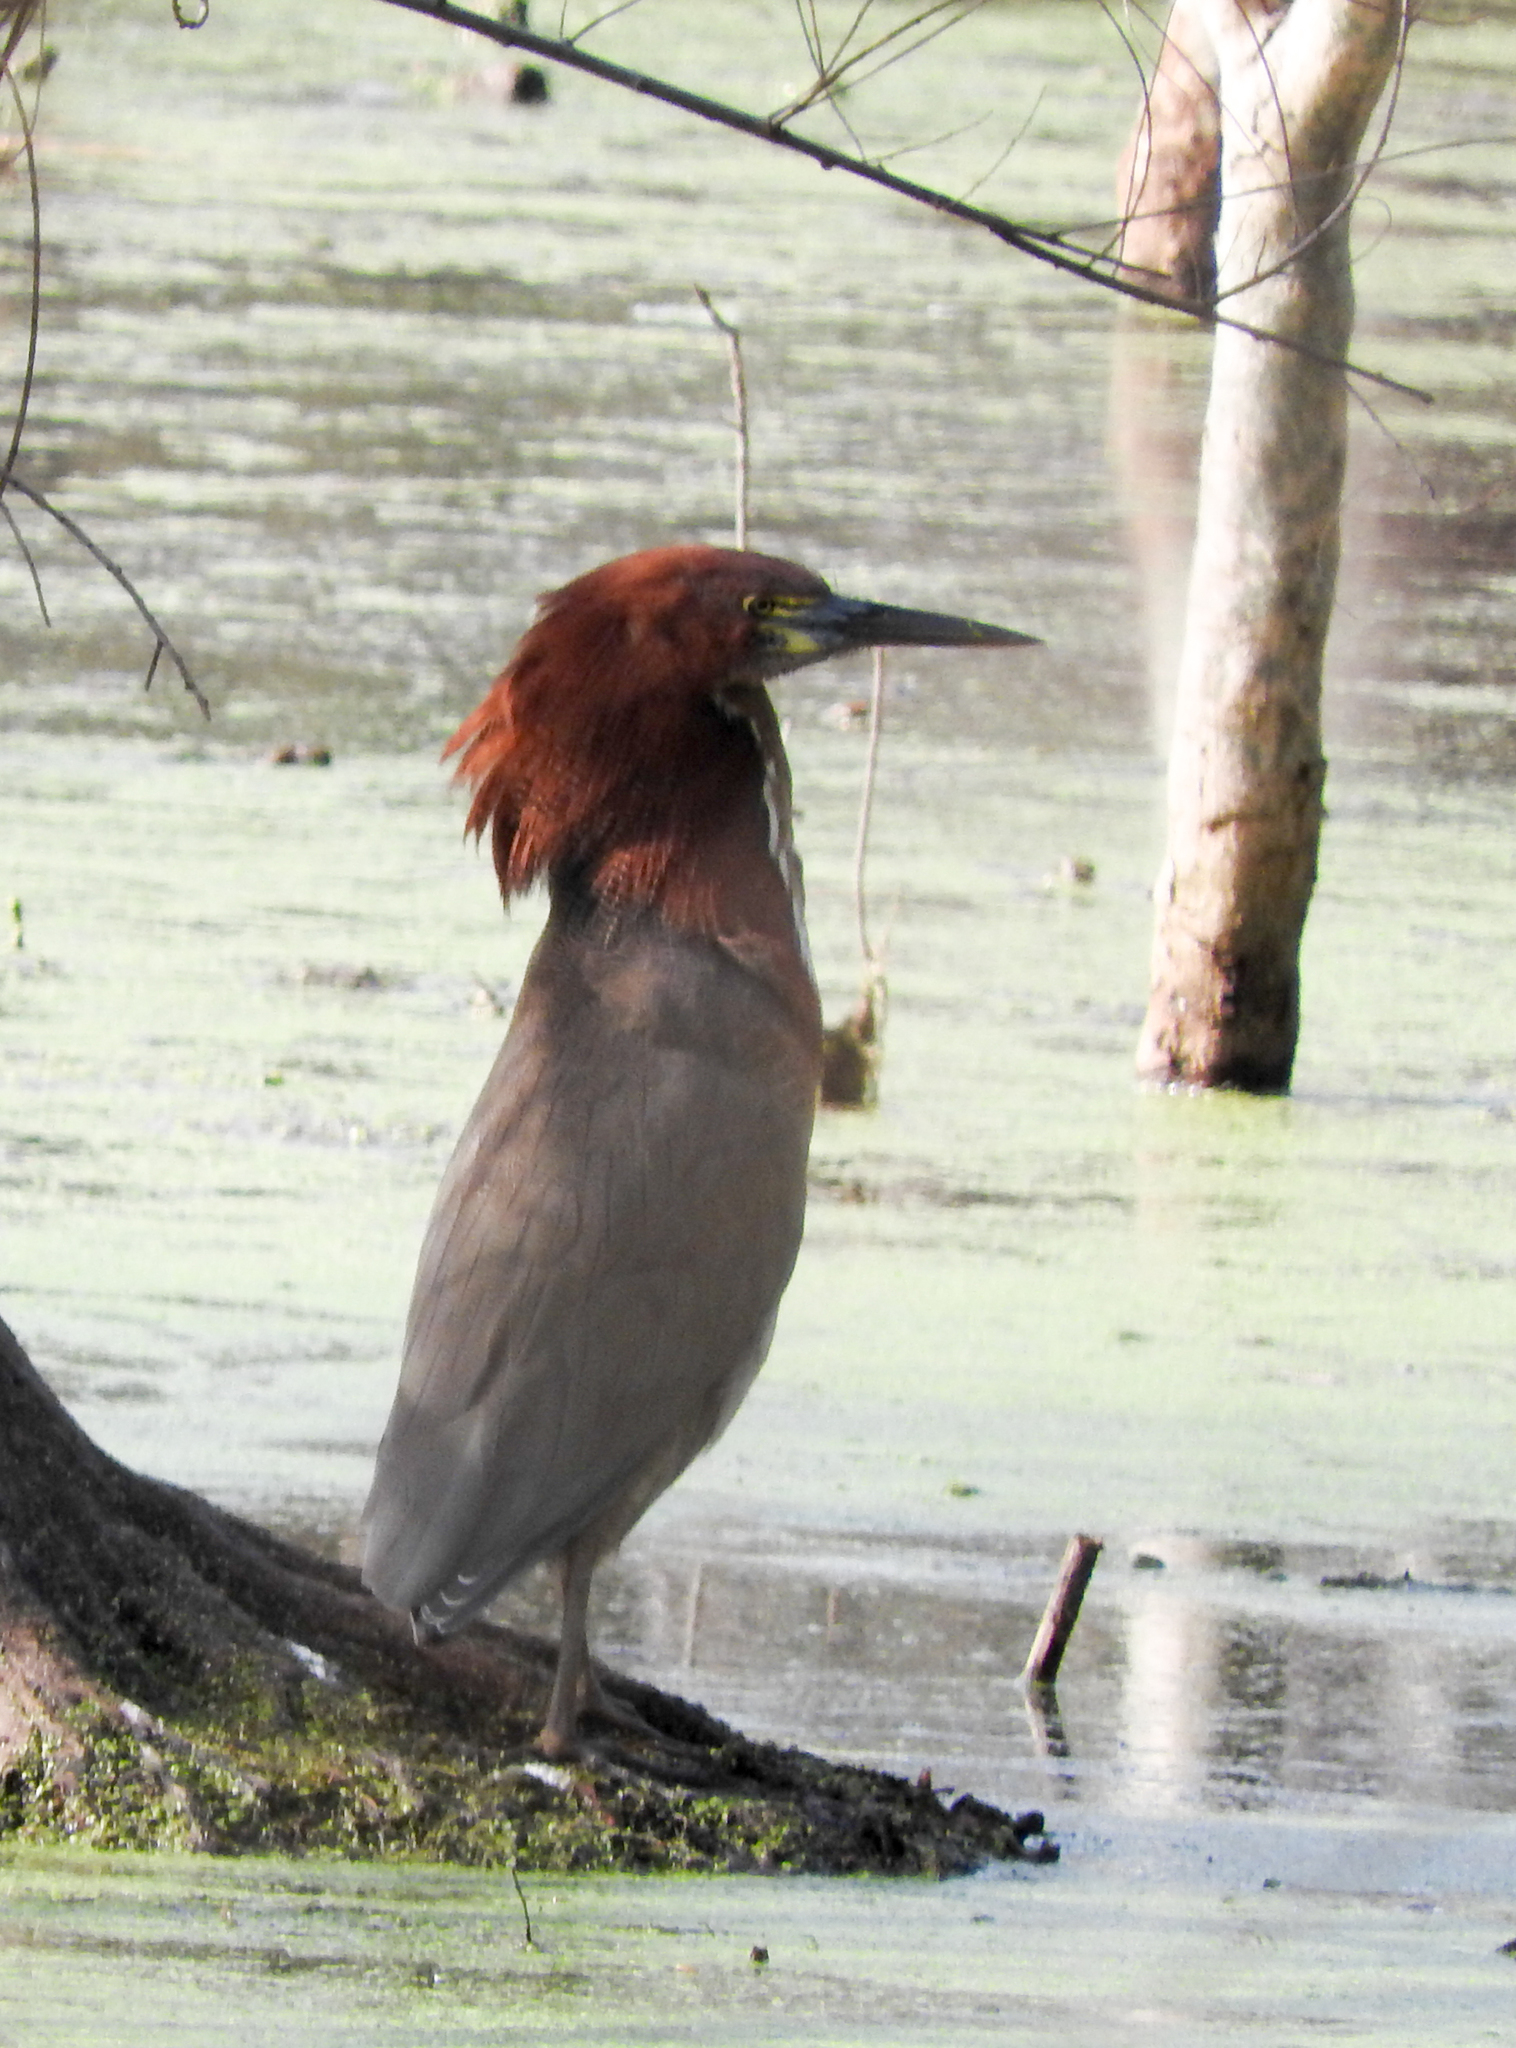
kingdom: Animalia
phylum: Chordata
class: Aves
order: Pelecaniformes
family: Ardeidae
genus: Tigrisoma
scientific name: Tigrisoma lineatum
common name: Rufescent tiger-heron
